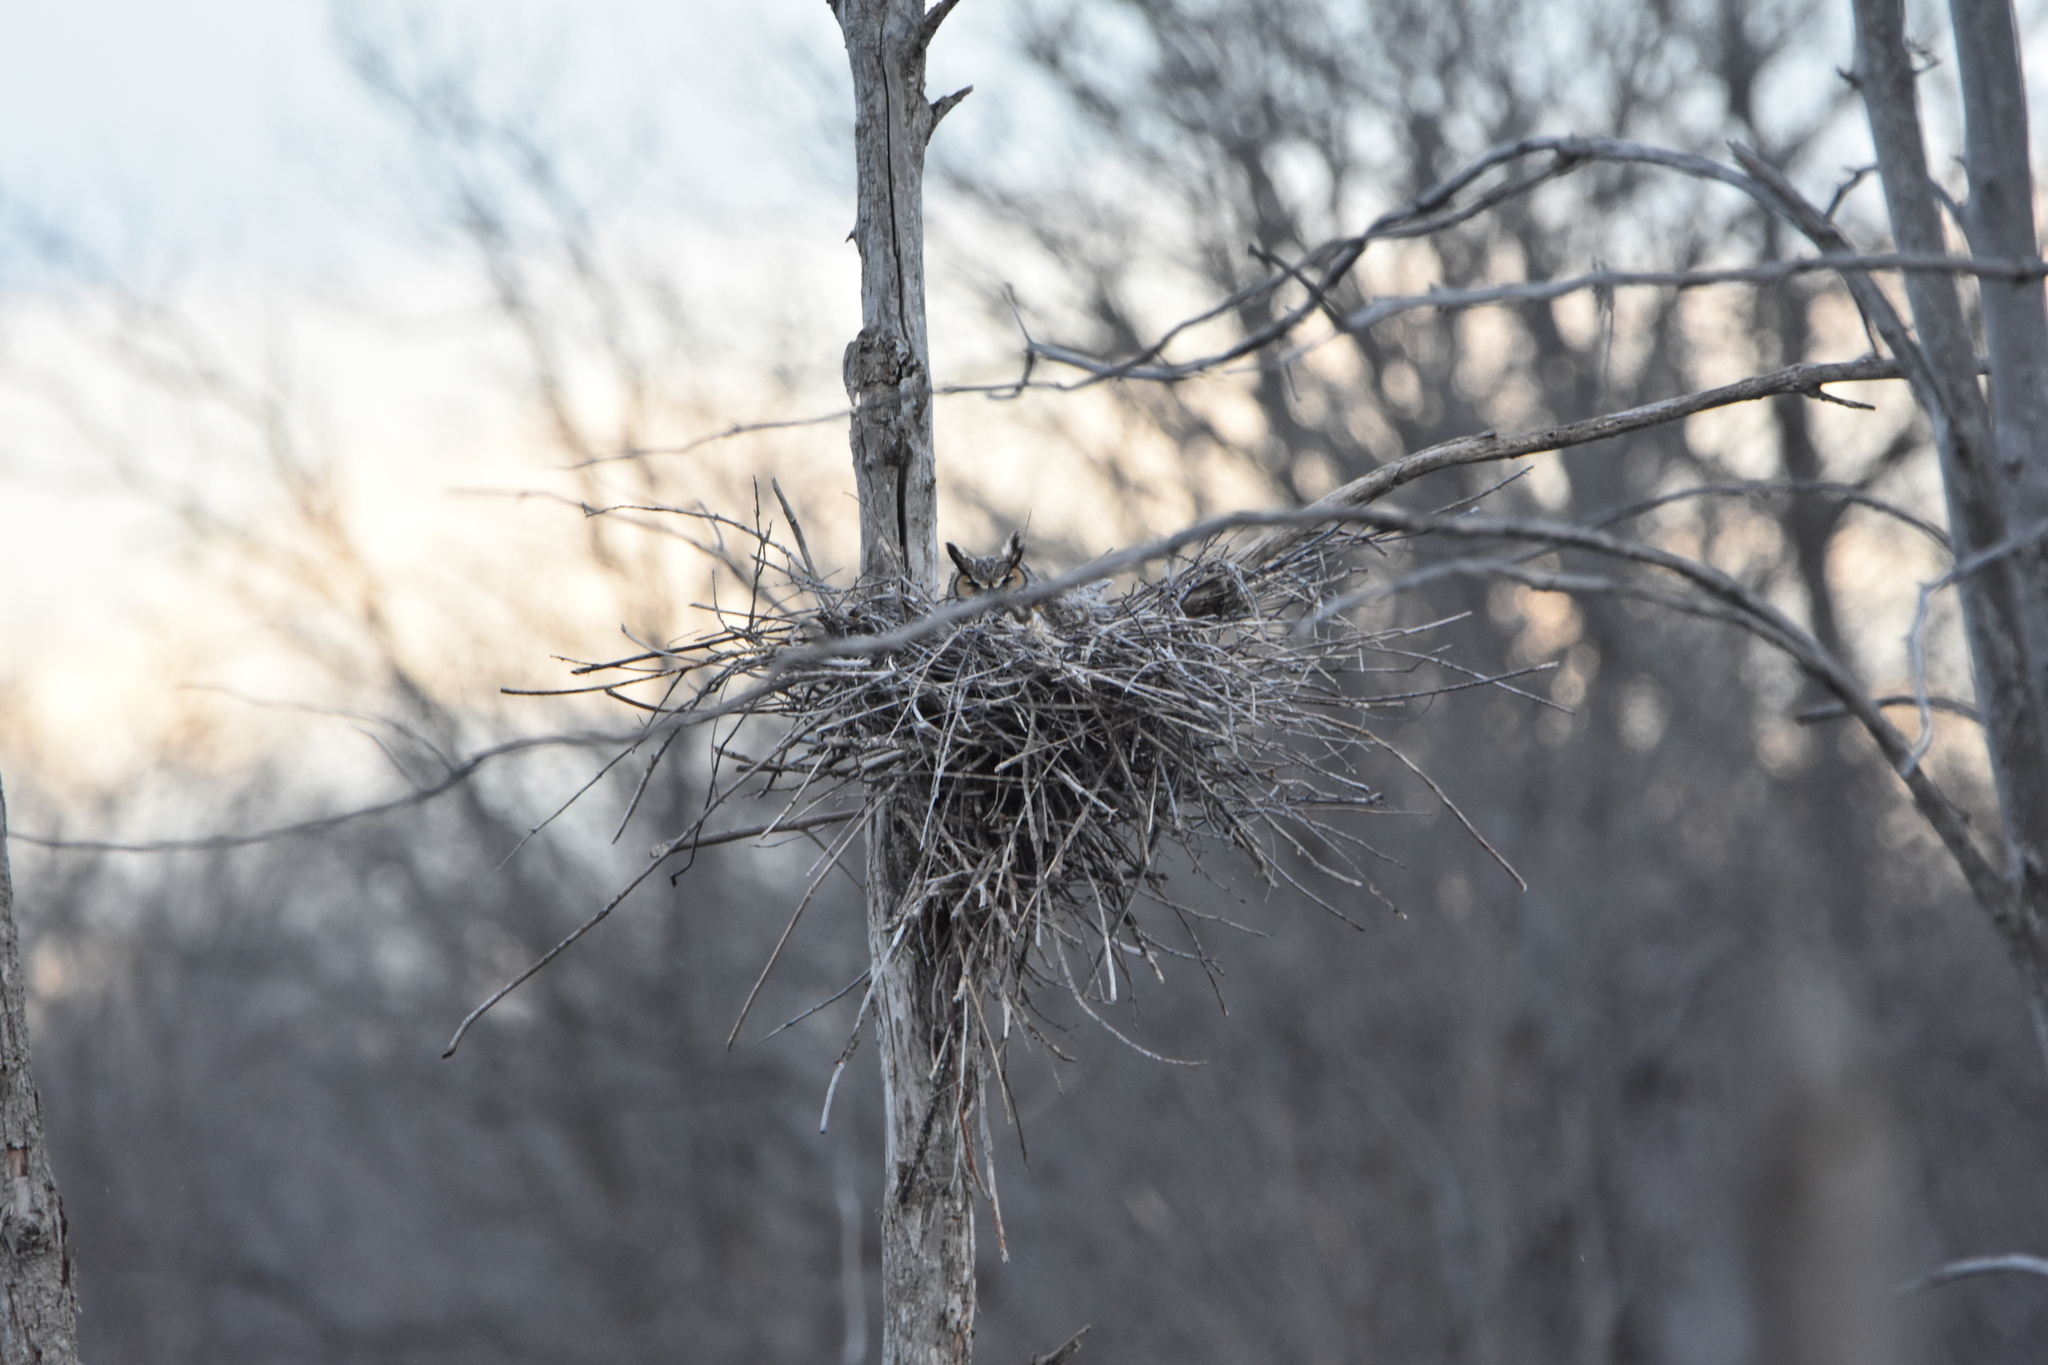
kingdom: Animalia
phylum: Chordata
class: Aves
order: Strigiformes
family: Strigidae
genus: Bubo
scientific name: Bubo virginianus
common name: Great horned owl
